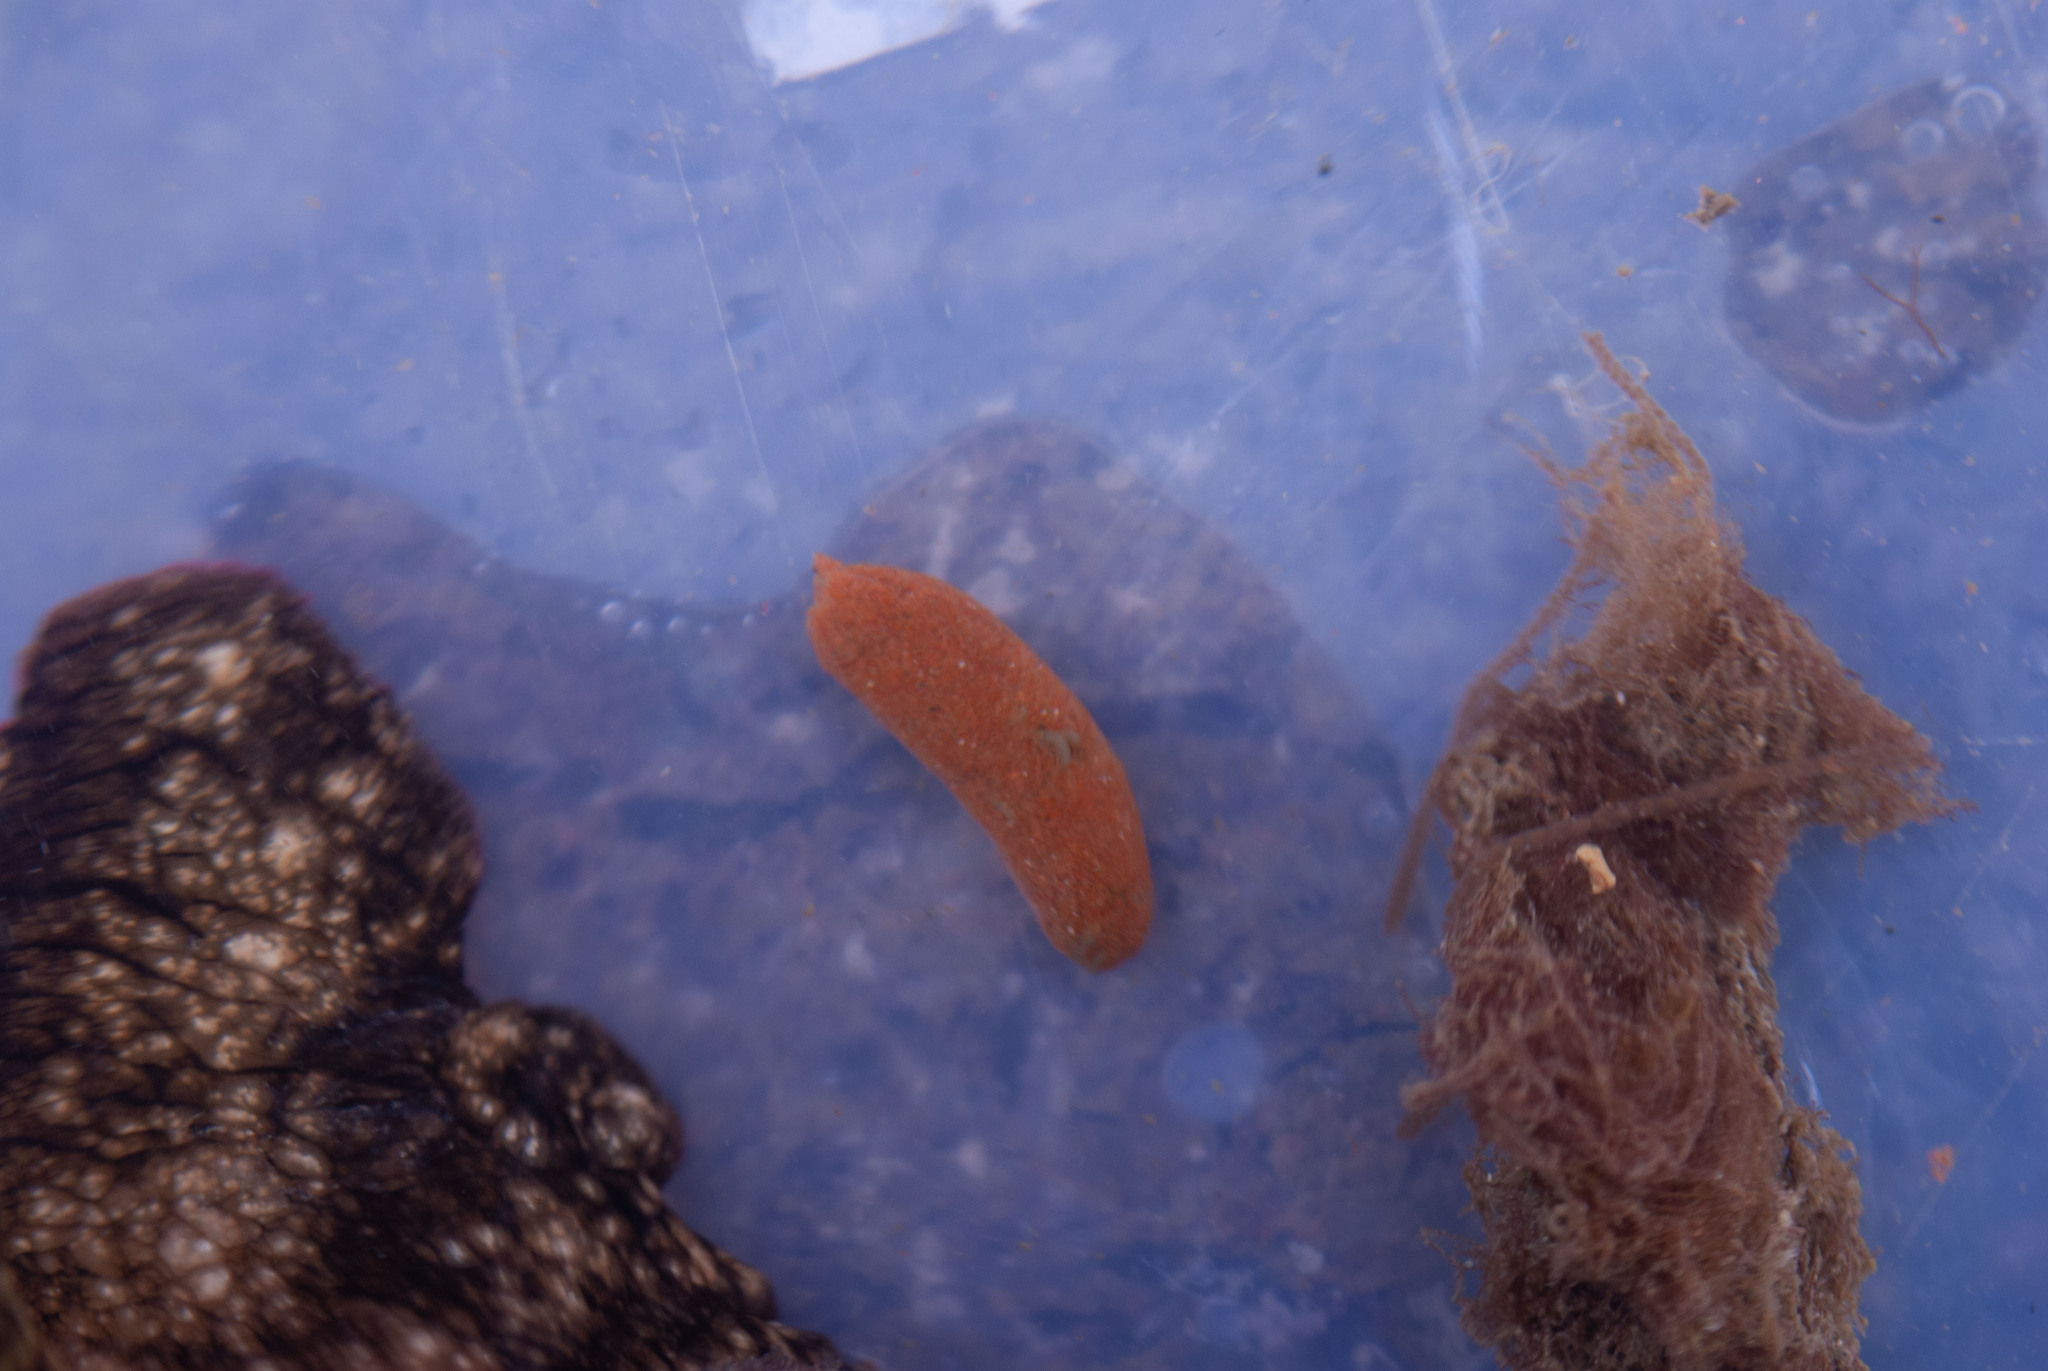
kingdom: Animalia
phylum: Mollusca
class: Gastropoda
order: Aplysiida
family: Aplysiidae
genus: Aplysia
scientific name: Aplysia brasiliana
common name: Mottled seahare
